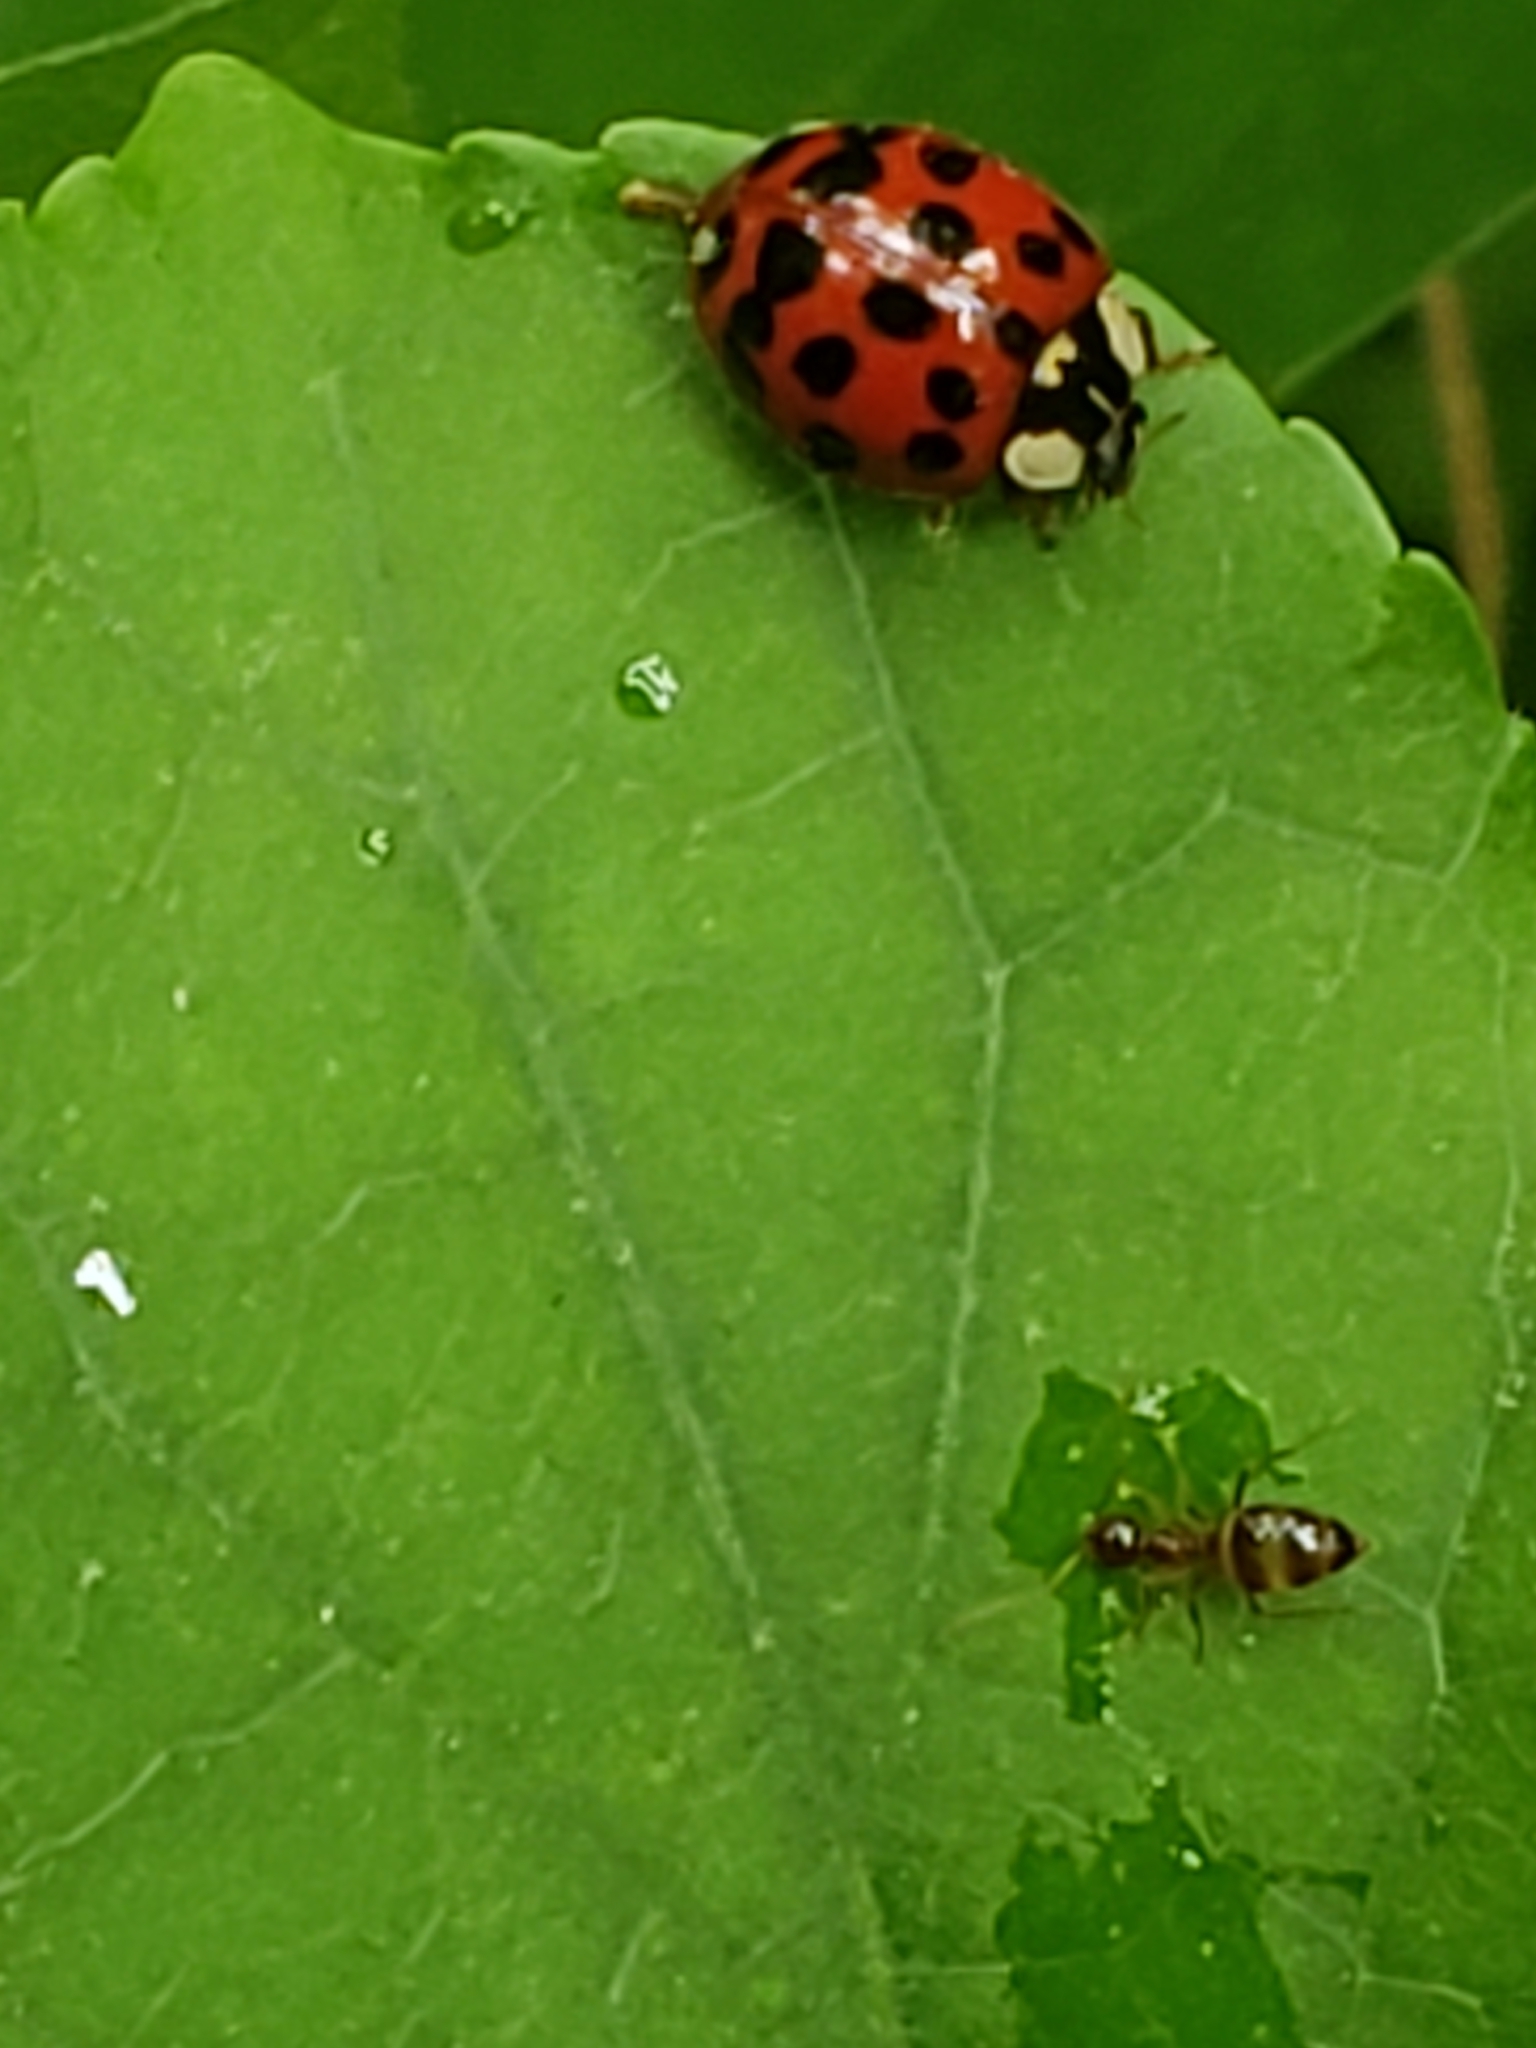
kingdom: Animalia
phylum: Arthropoda
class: Insecta
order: Coleoptera
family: Coccinellidae
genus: Harmonia
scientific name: Harmonia axyridis
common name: Harlequin ladybird
